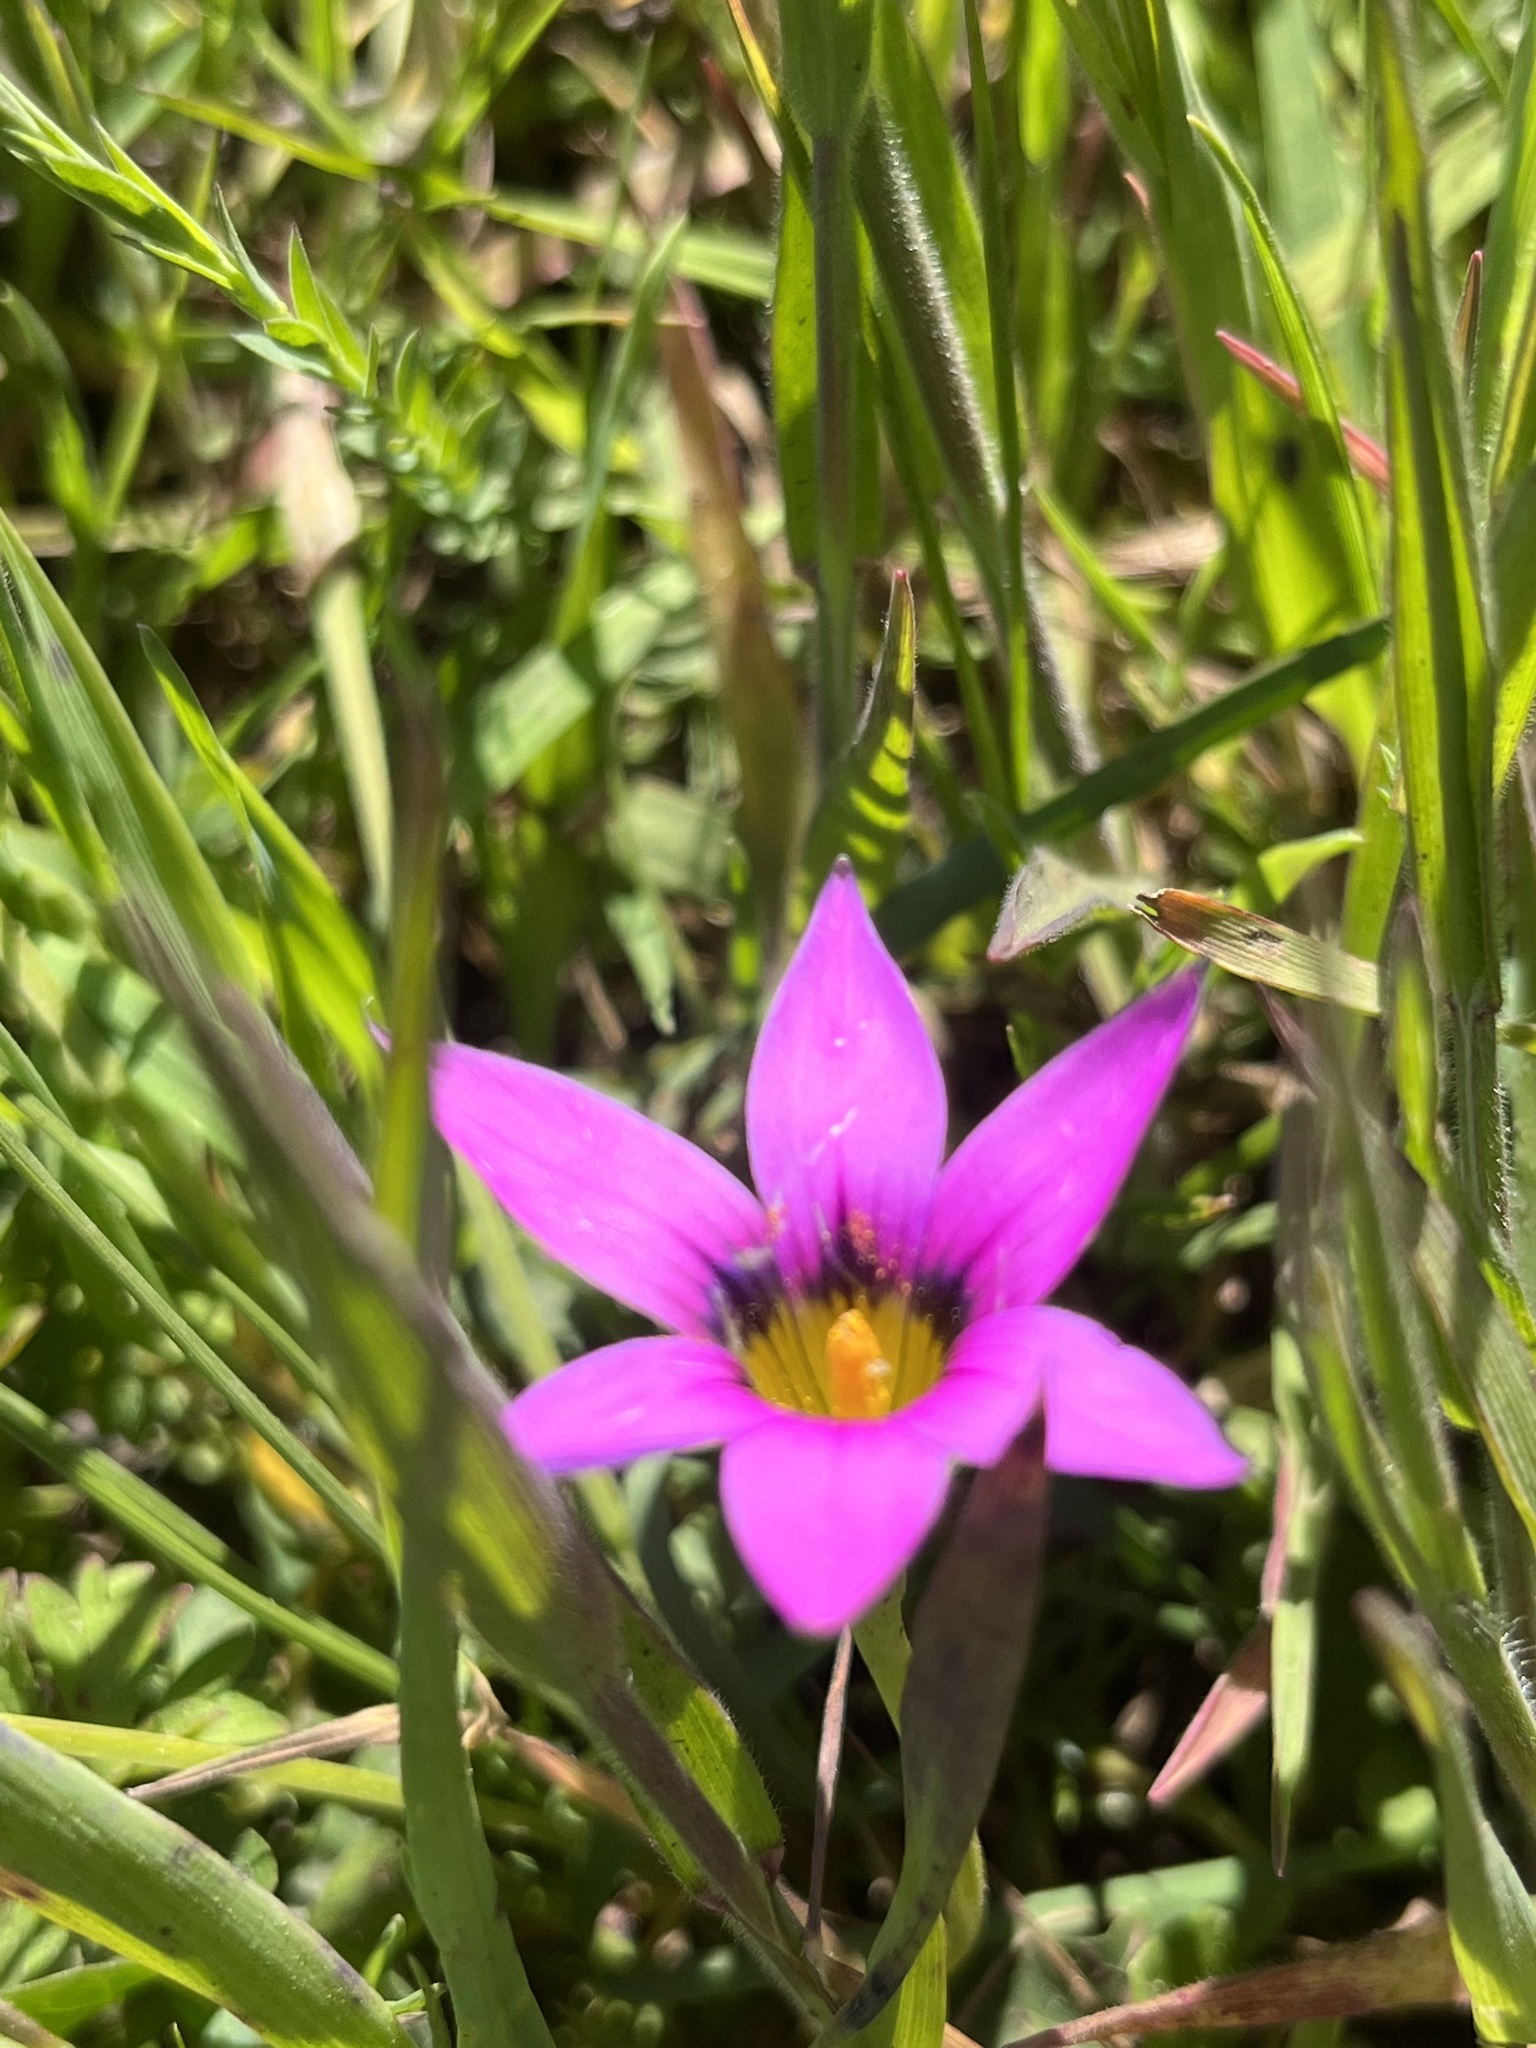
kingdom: Plantae
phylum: Tracheophyta
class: Liliopsida
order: Asparagales
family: Iridaceae
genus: Romulea
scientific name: Romulea rosea
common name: Oniongrass
